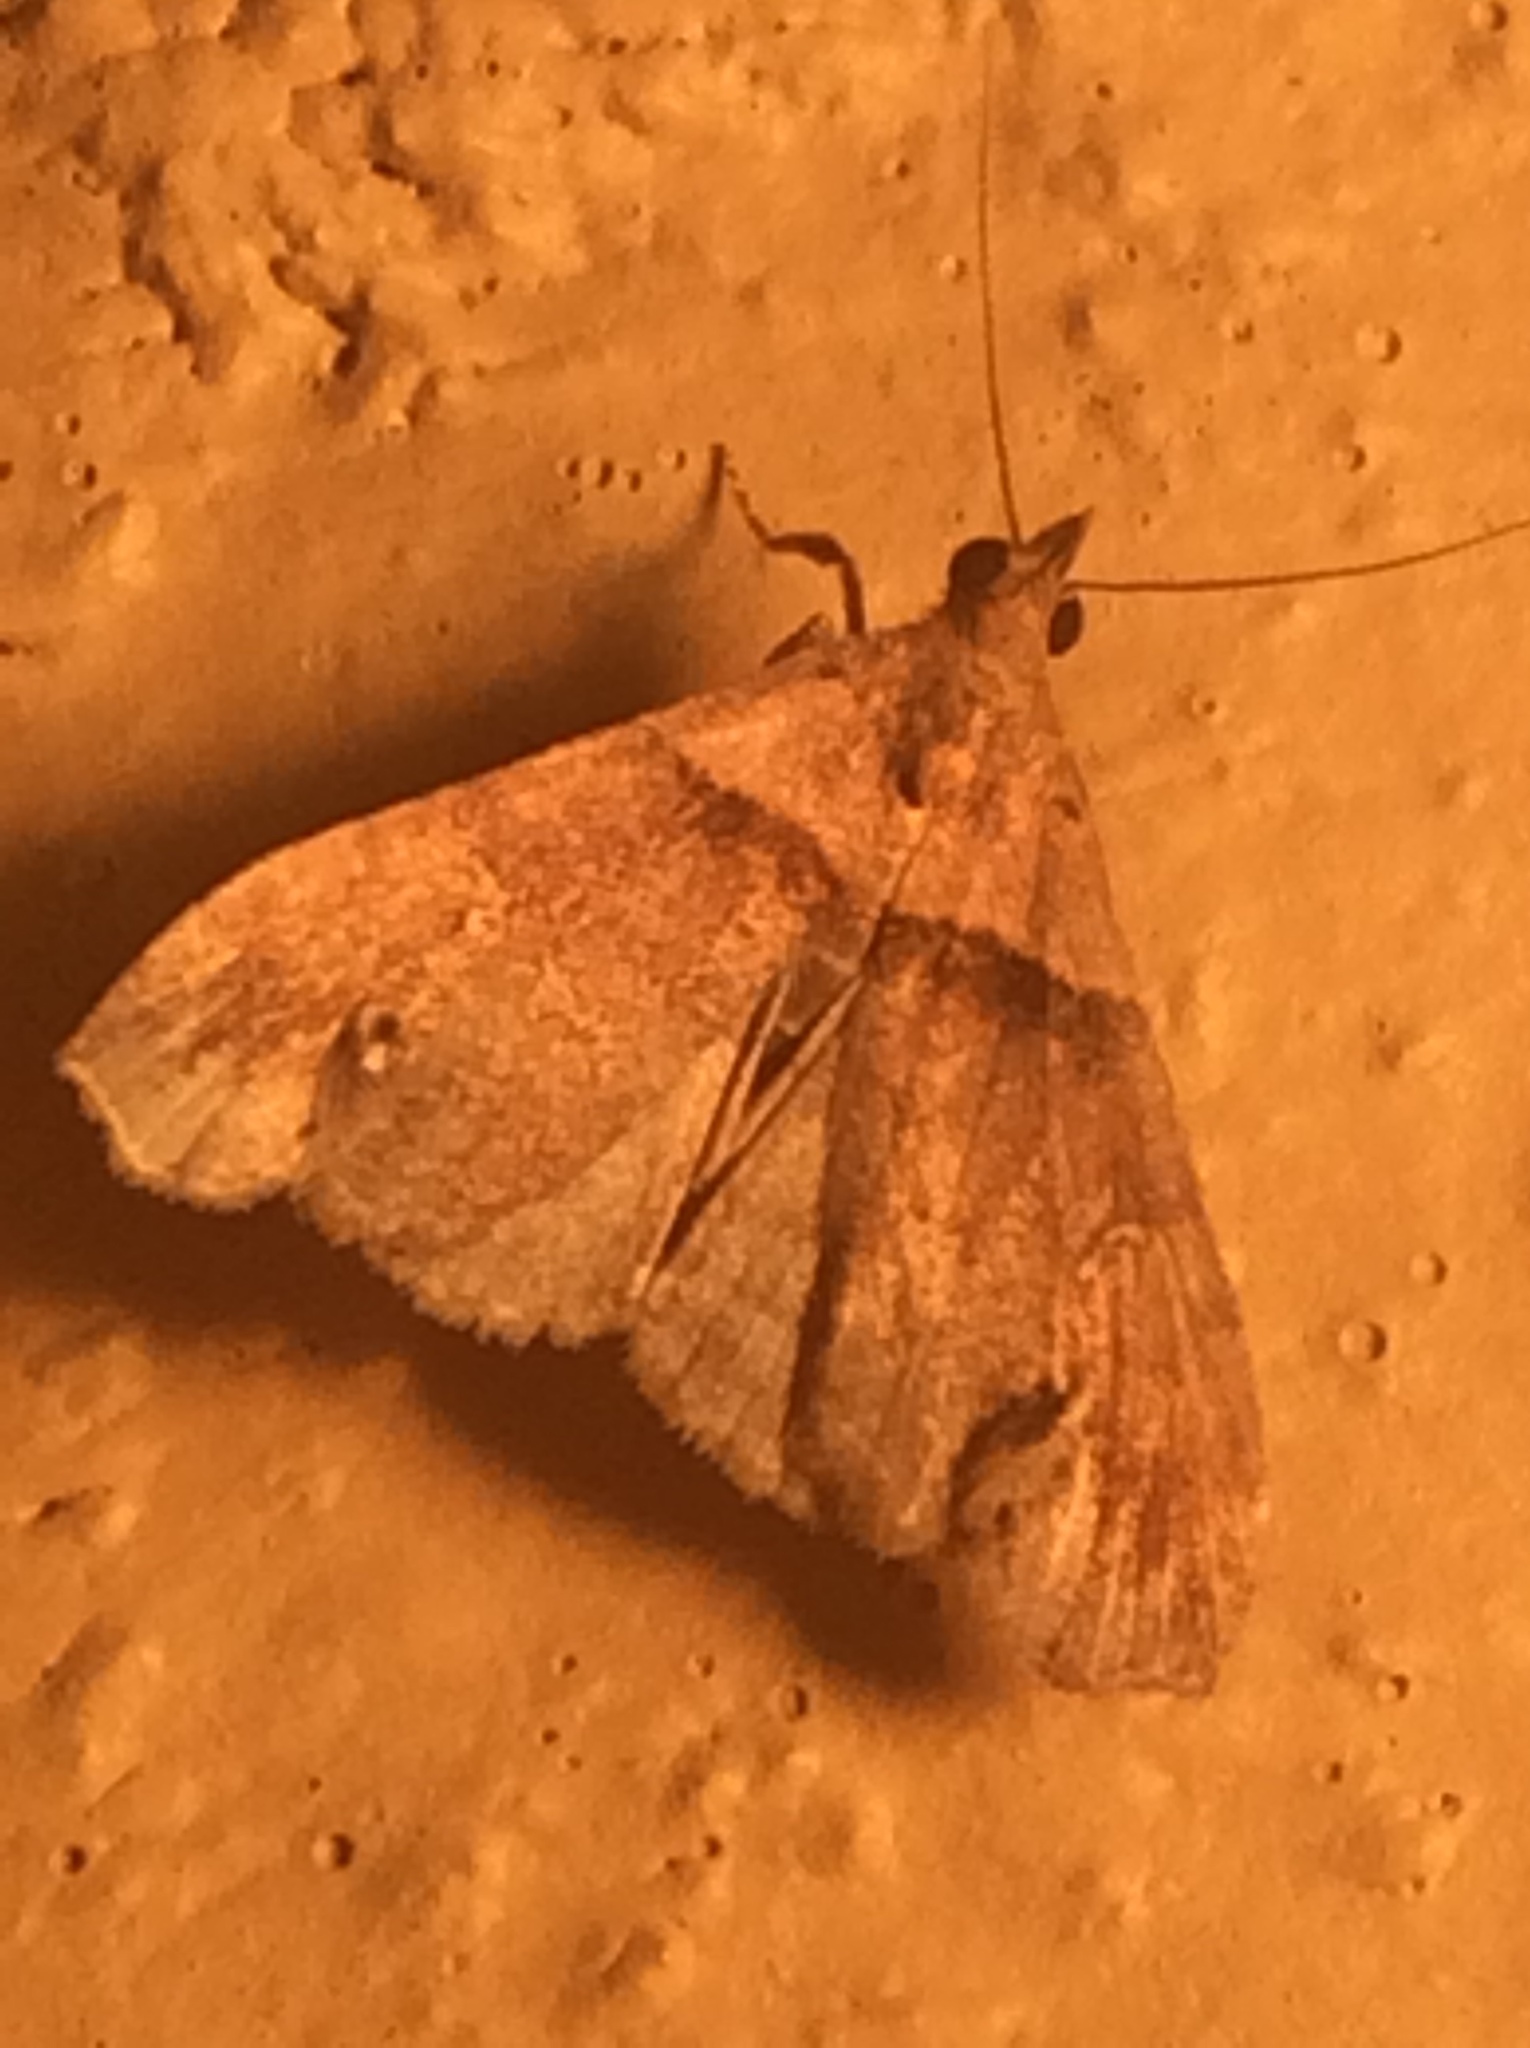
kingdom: Animalia
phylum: Arthropoda
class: Insecta
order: Lepidoptera
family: Erebidae
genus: Lascoria
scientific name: Lascoria ambigualis
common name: Ambiguous moth
